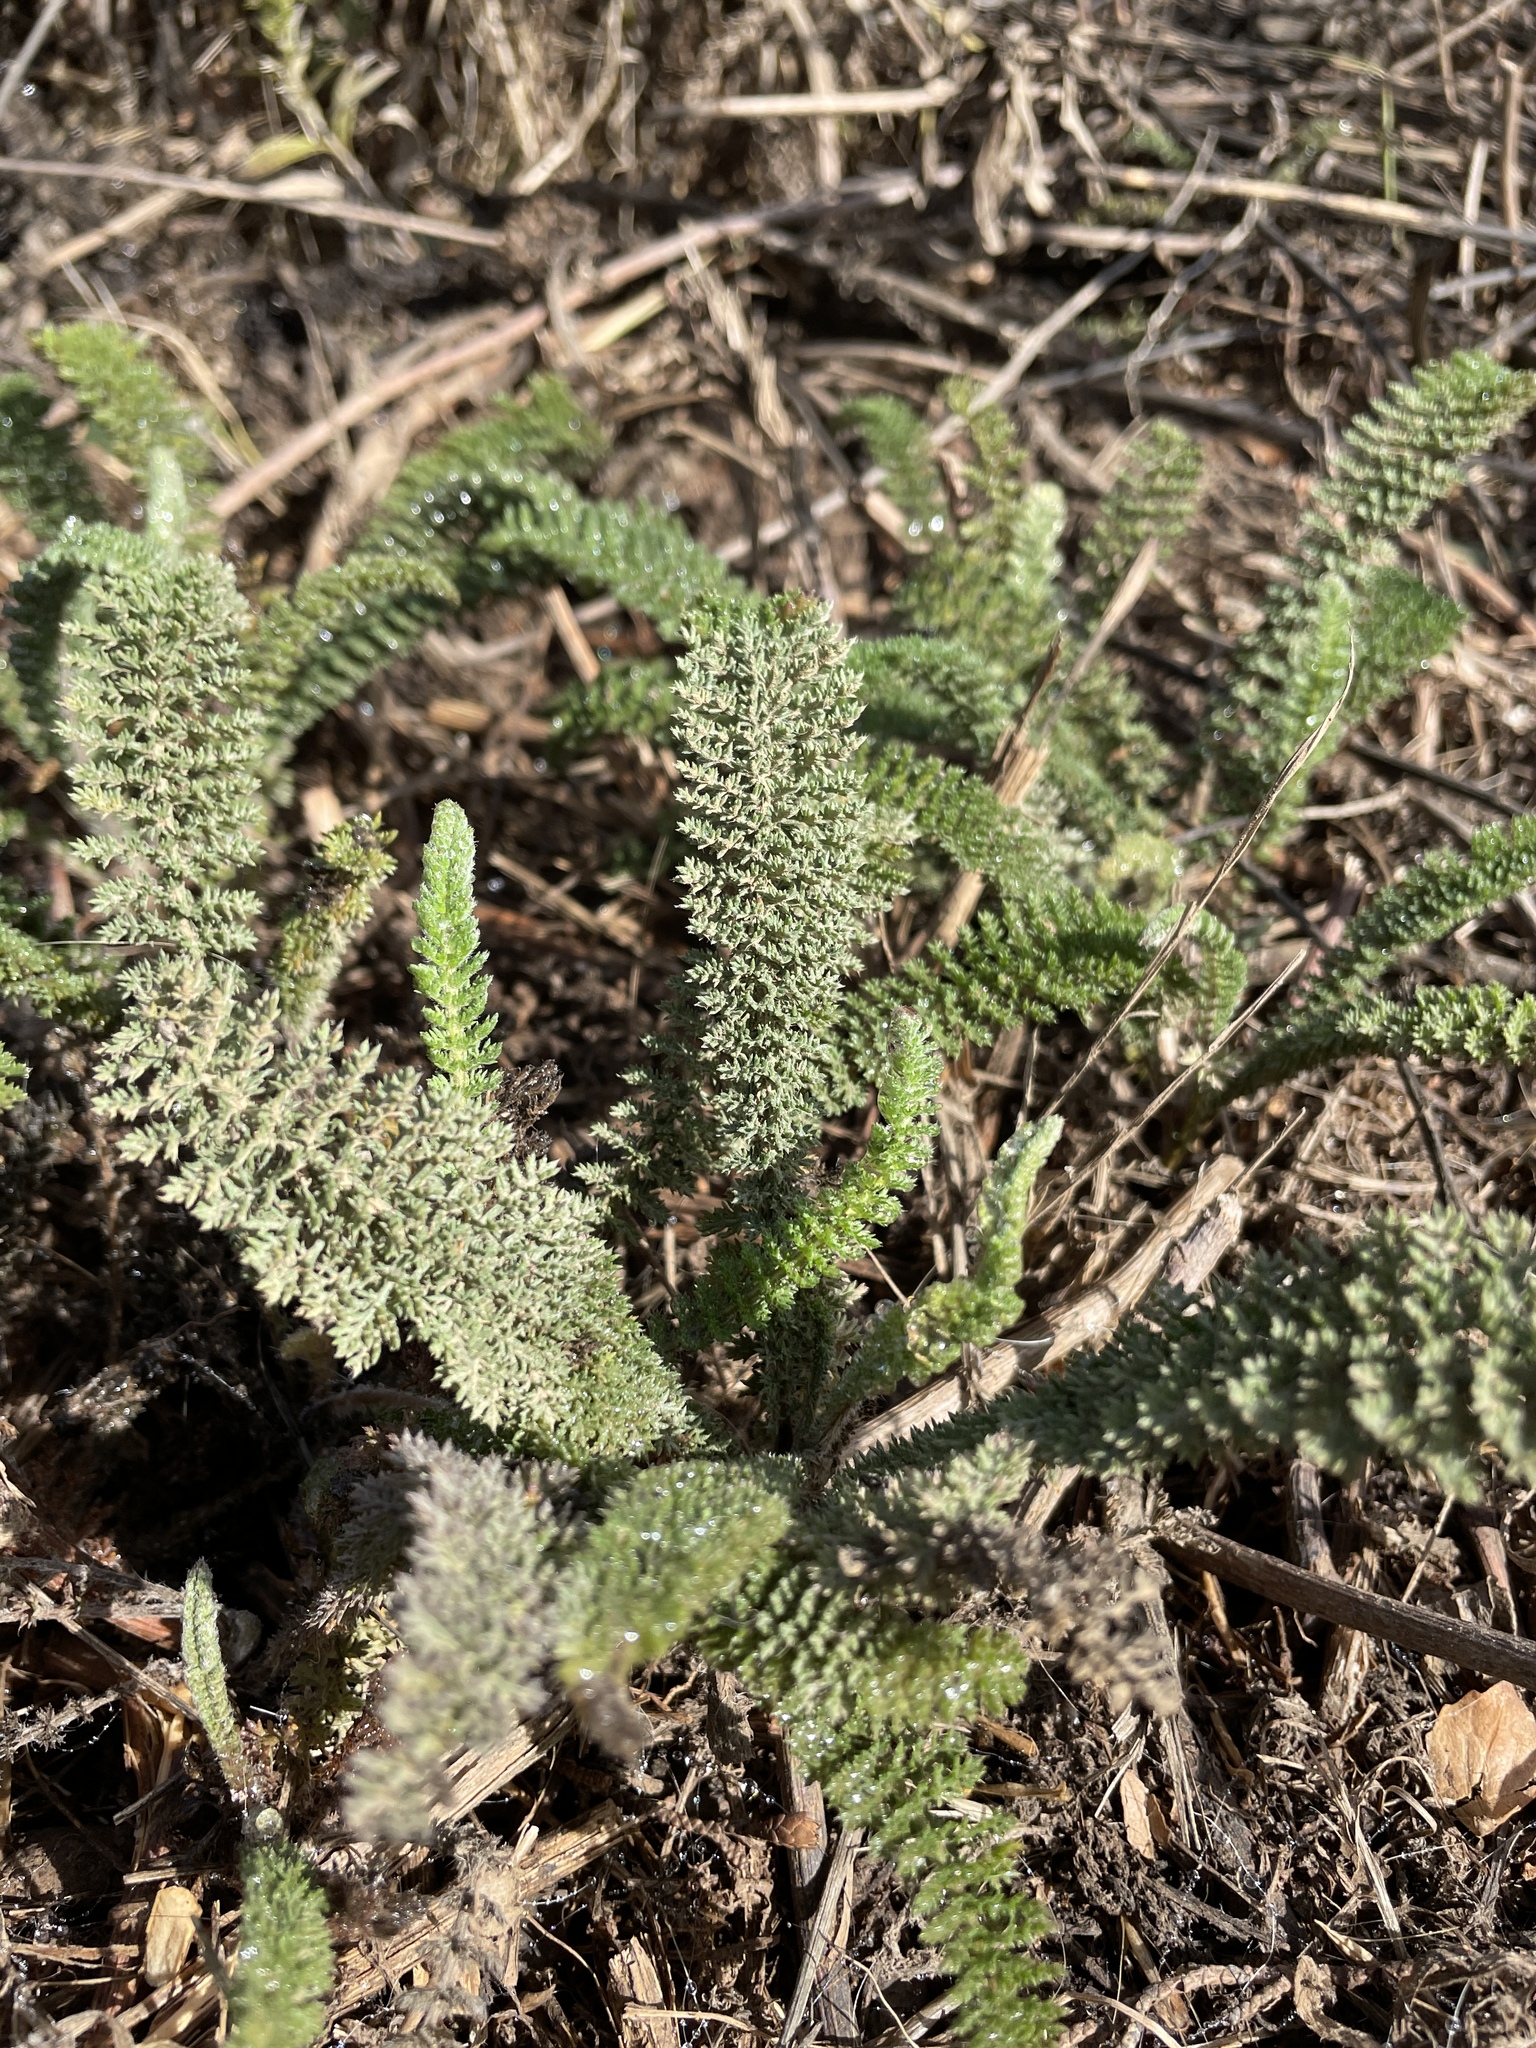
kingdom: Plantae
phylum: Tracheophyta
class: Magnoliopsida
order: Asterales
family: Asteraceae
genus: Achillea
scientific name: Achillea millefolium
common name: Yarrow
